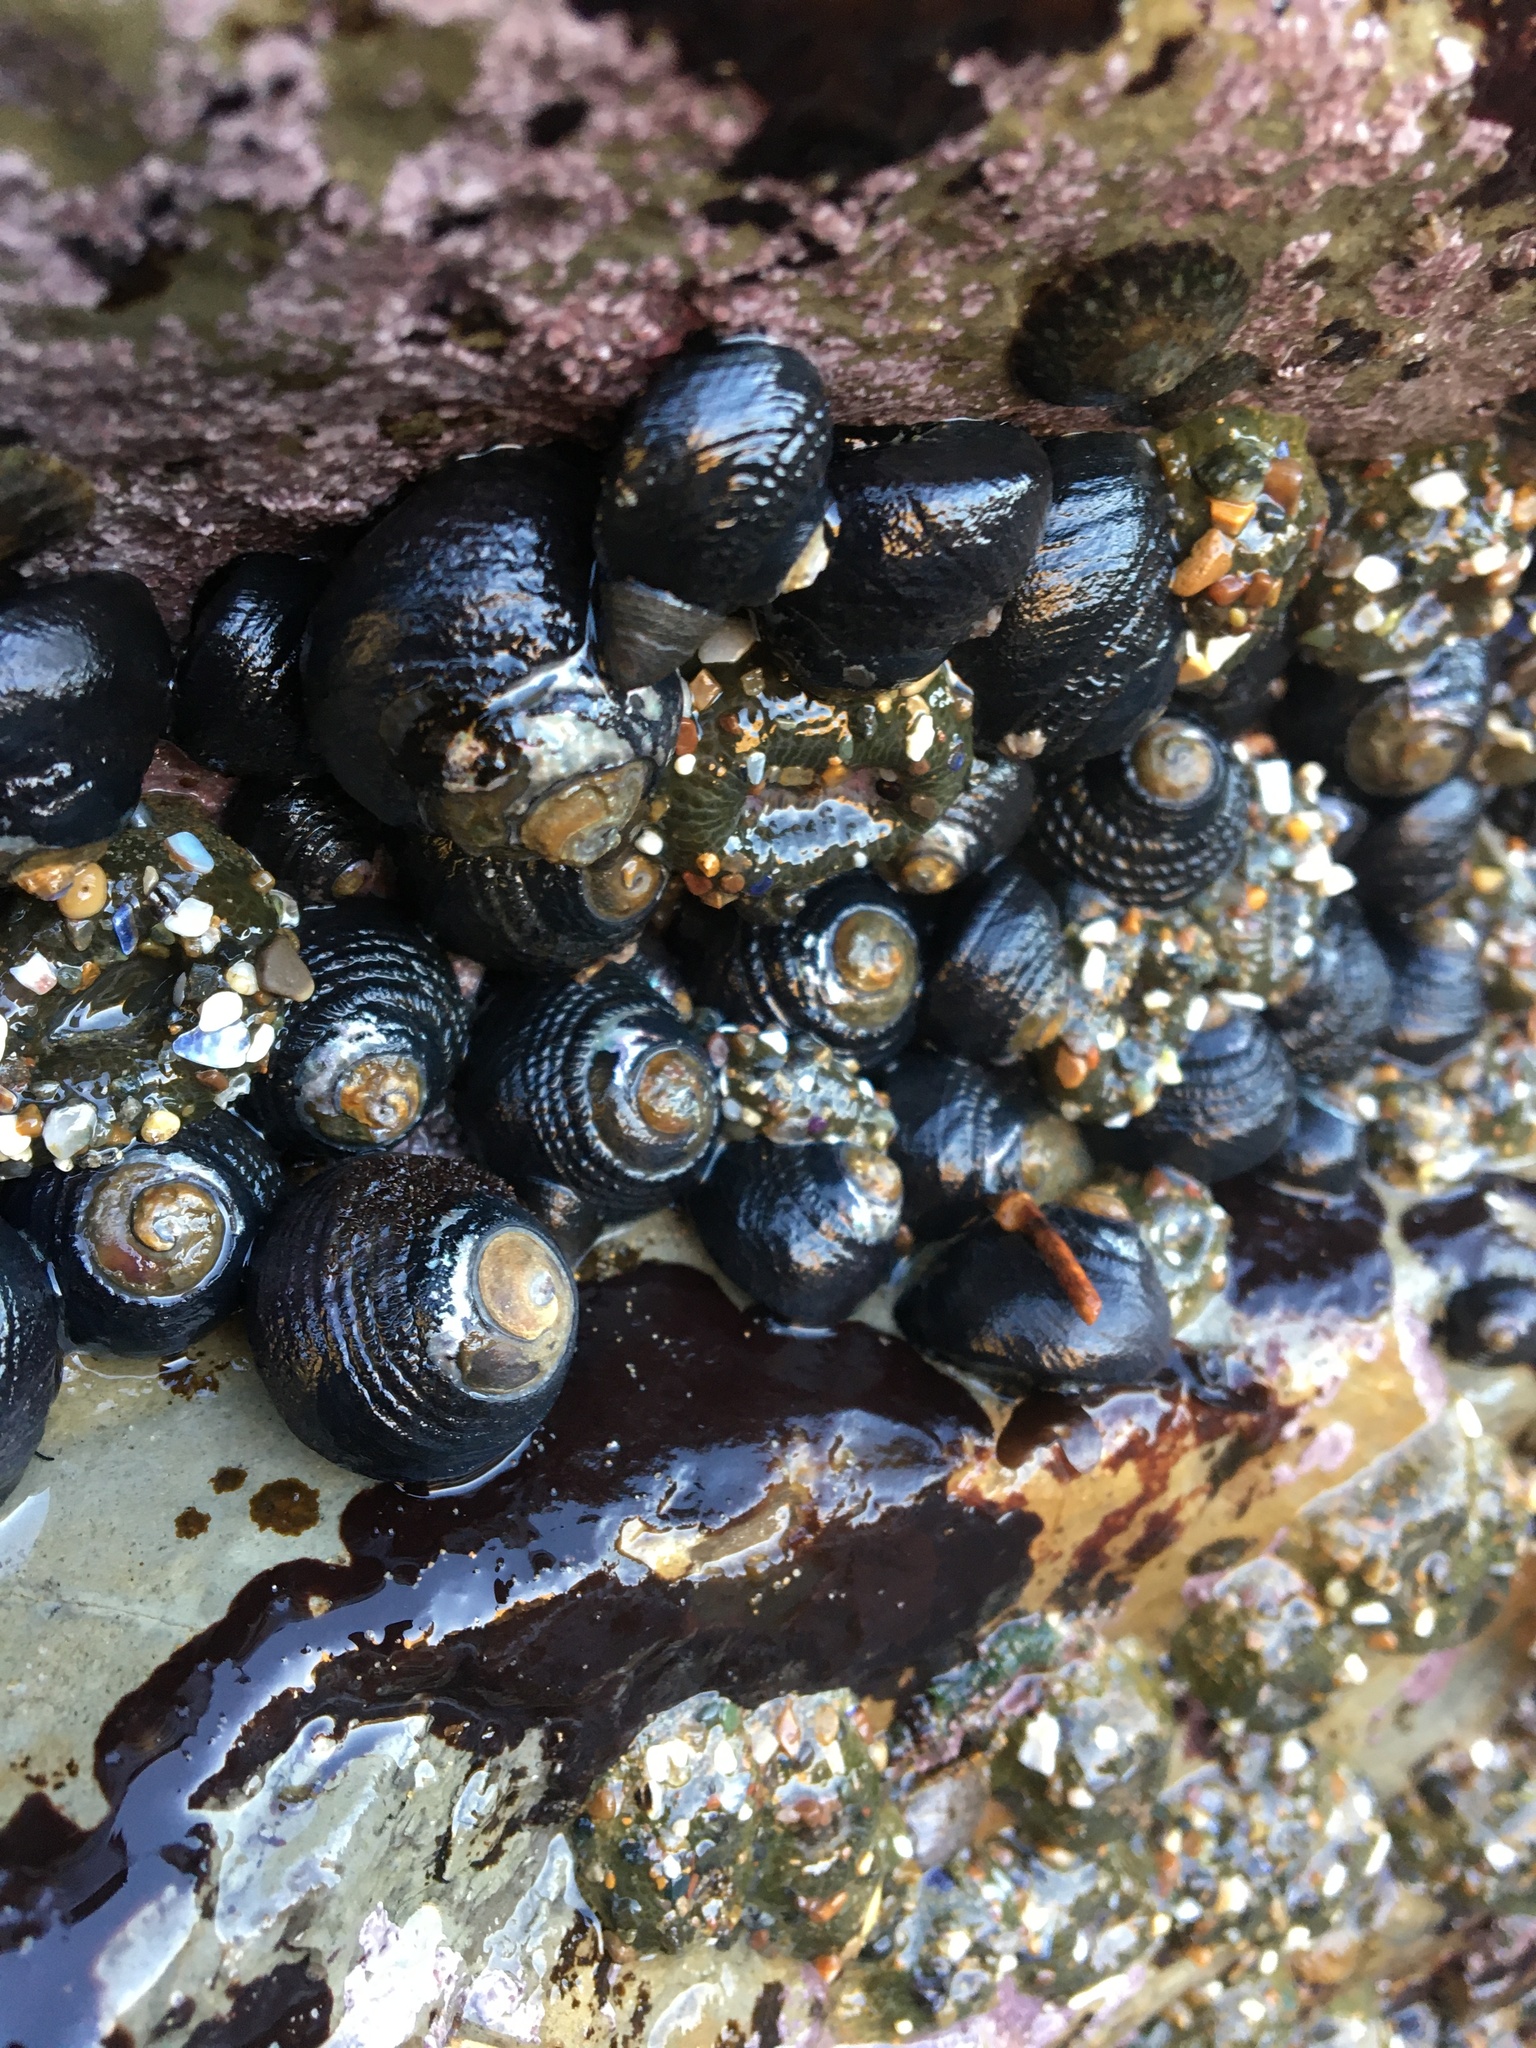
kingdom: Animalia
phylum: Mollusca
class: Gastropoda
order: Trochida
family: Tegulidae
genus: Tegula
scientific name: Tegula funebralis
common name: Black tegula
